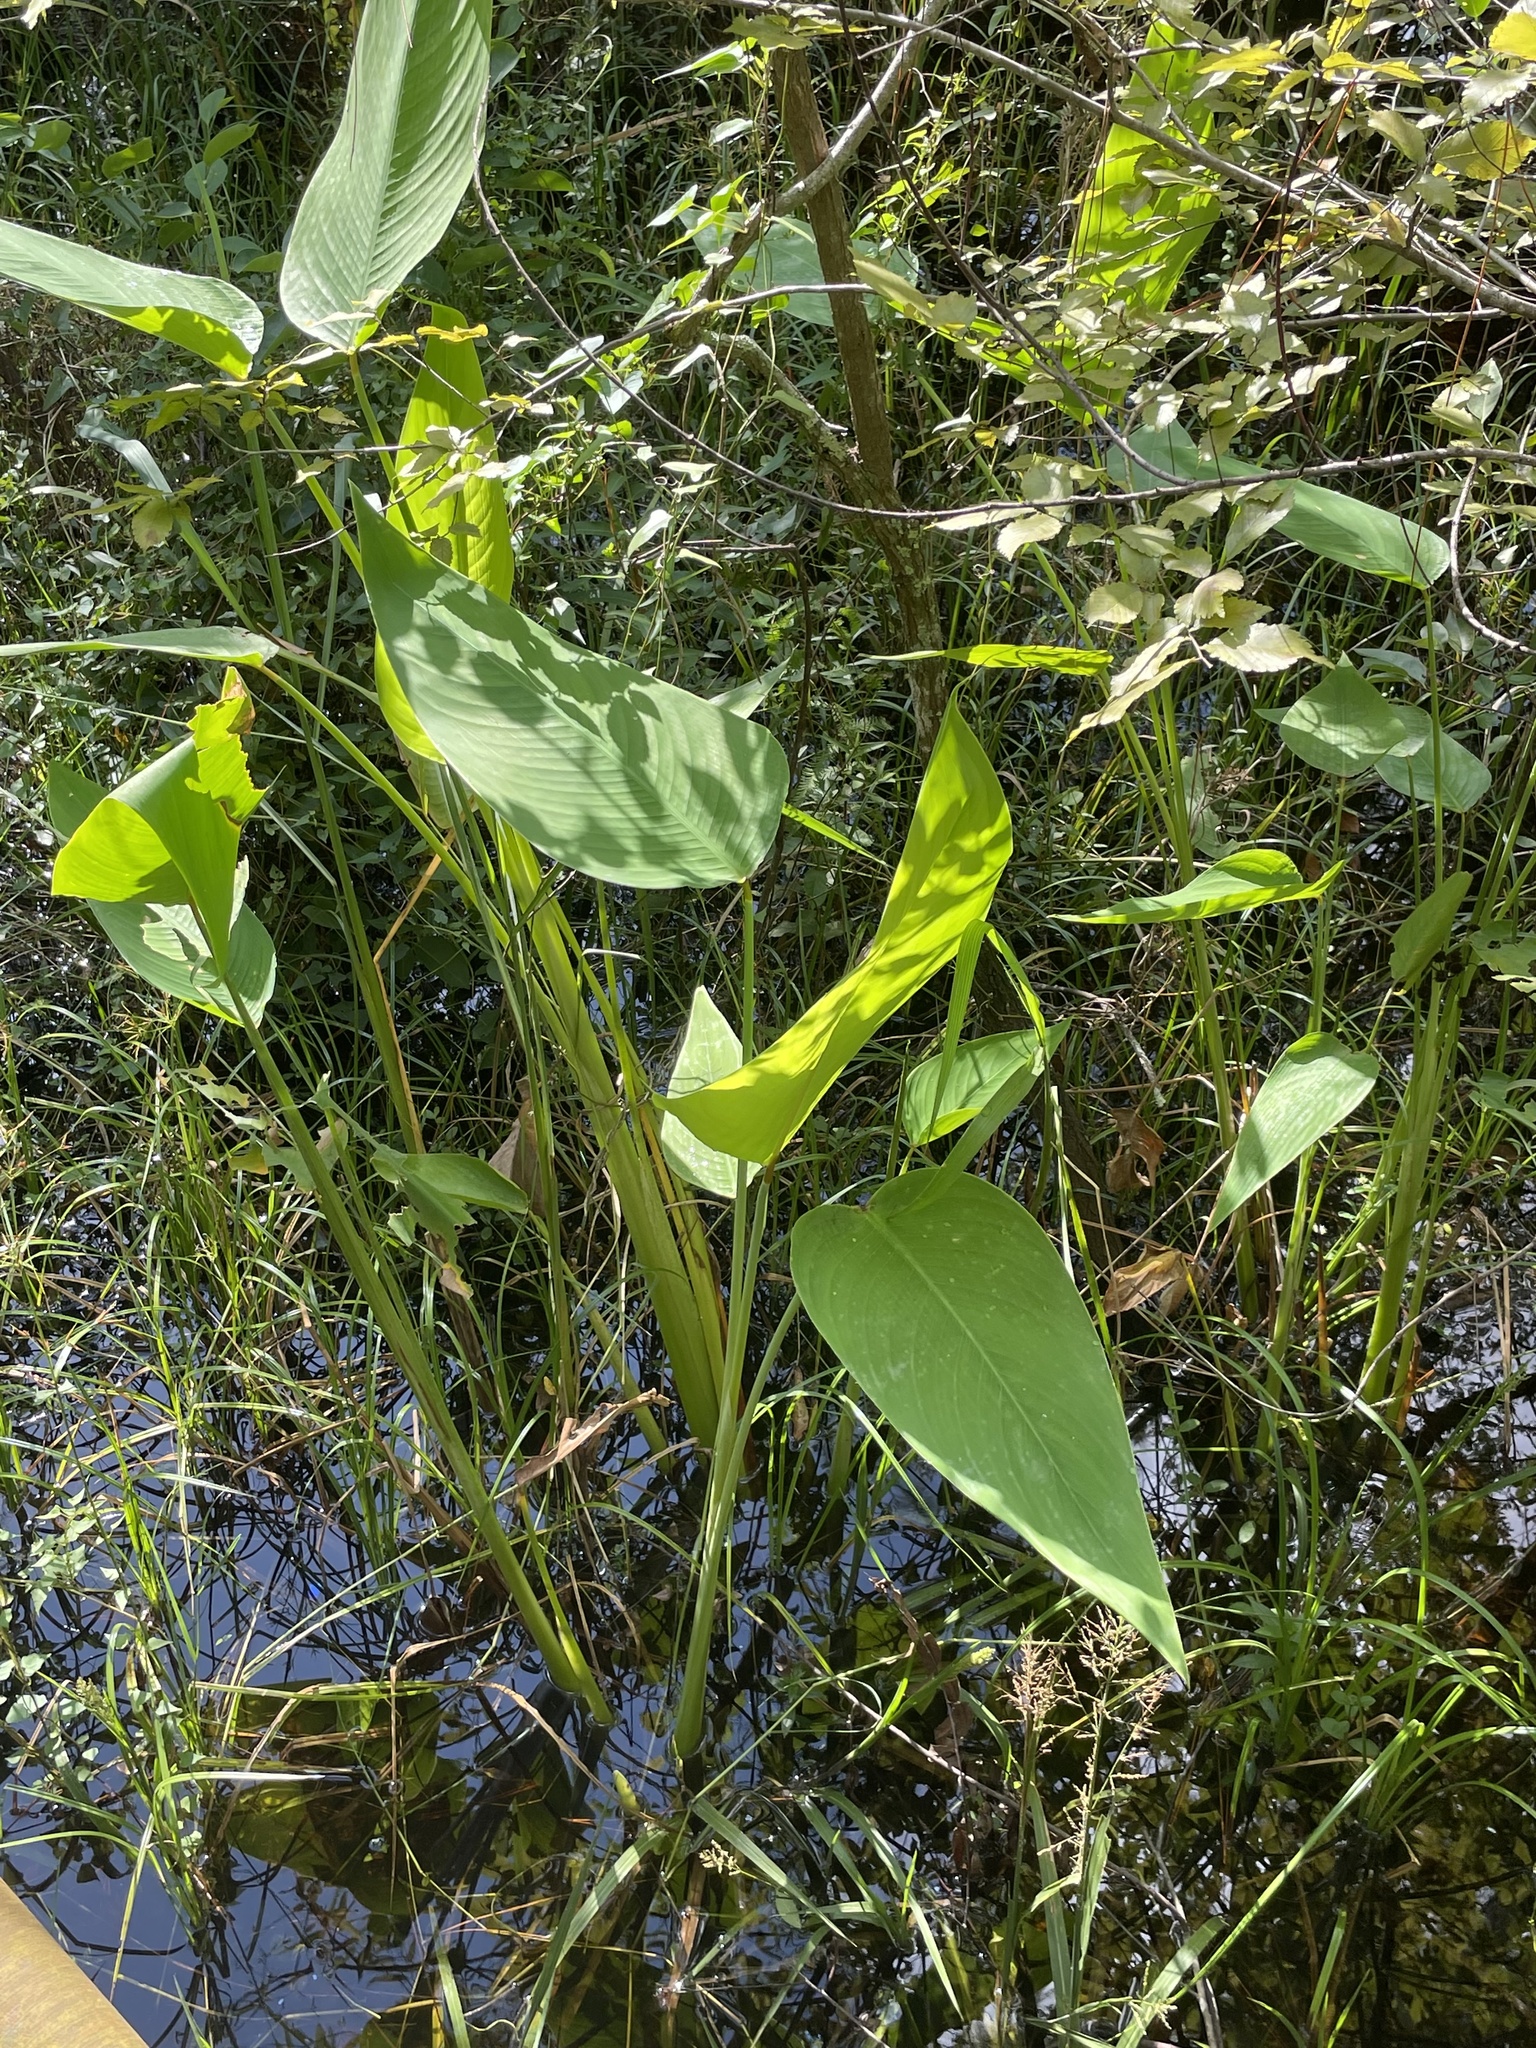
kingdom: Plantae
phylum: Tracheophyta
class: Liliopsida
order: Zingiberales
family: Marantaceae
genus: Thalia
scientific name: Thalia geniculata
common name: Arrowroot
